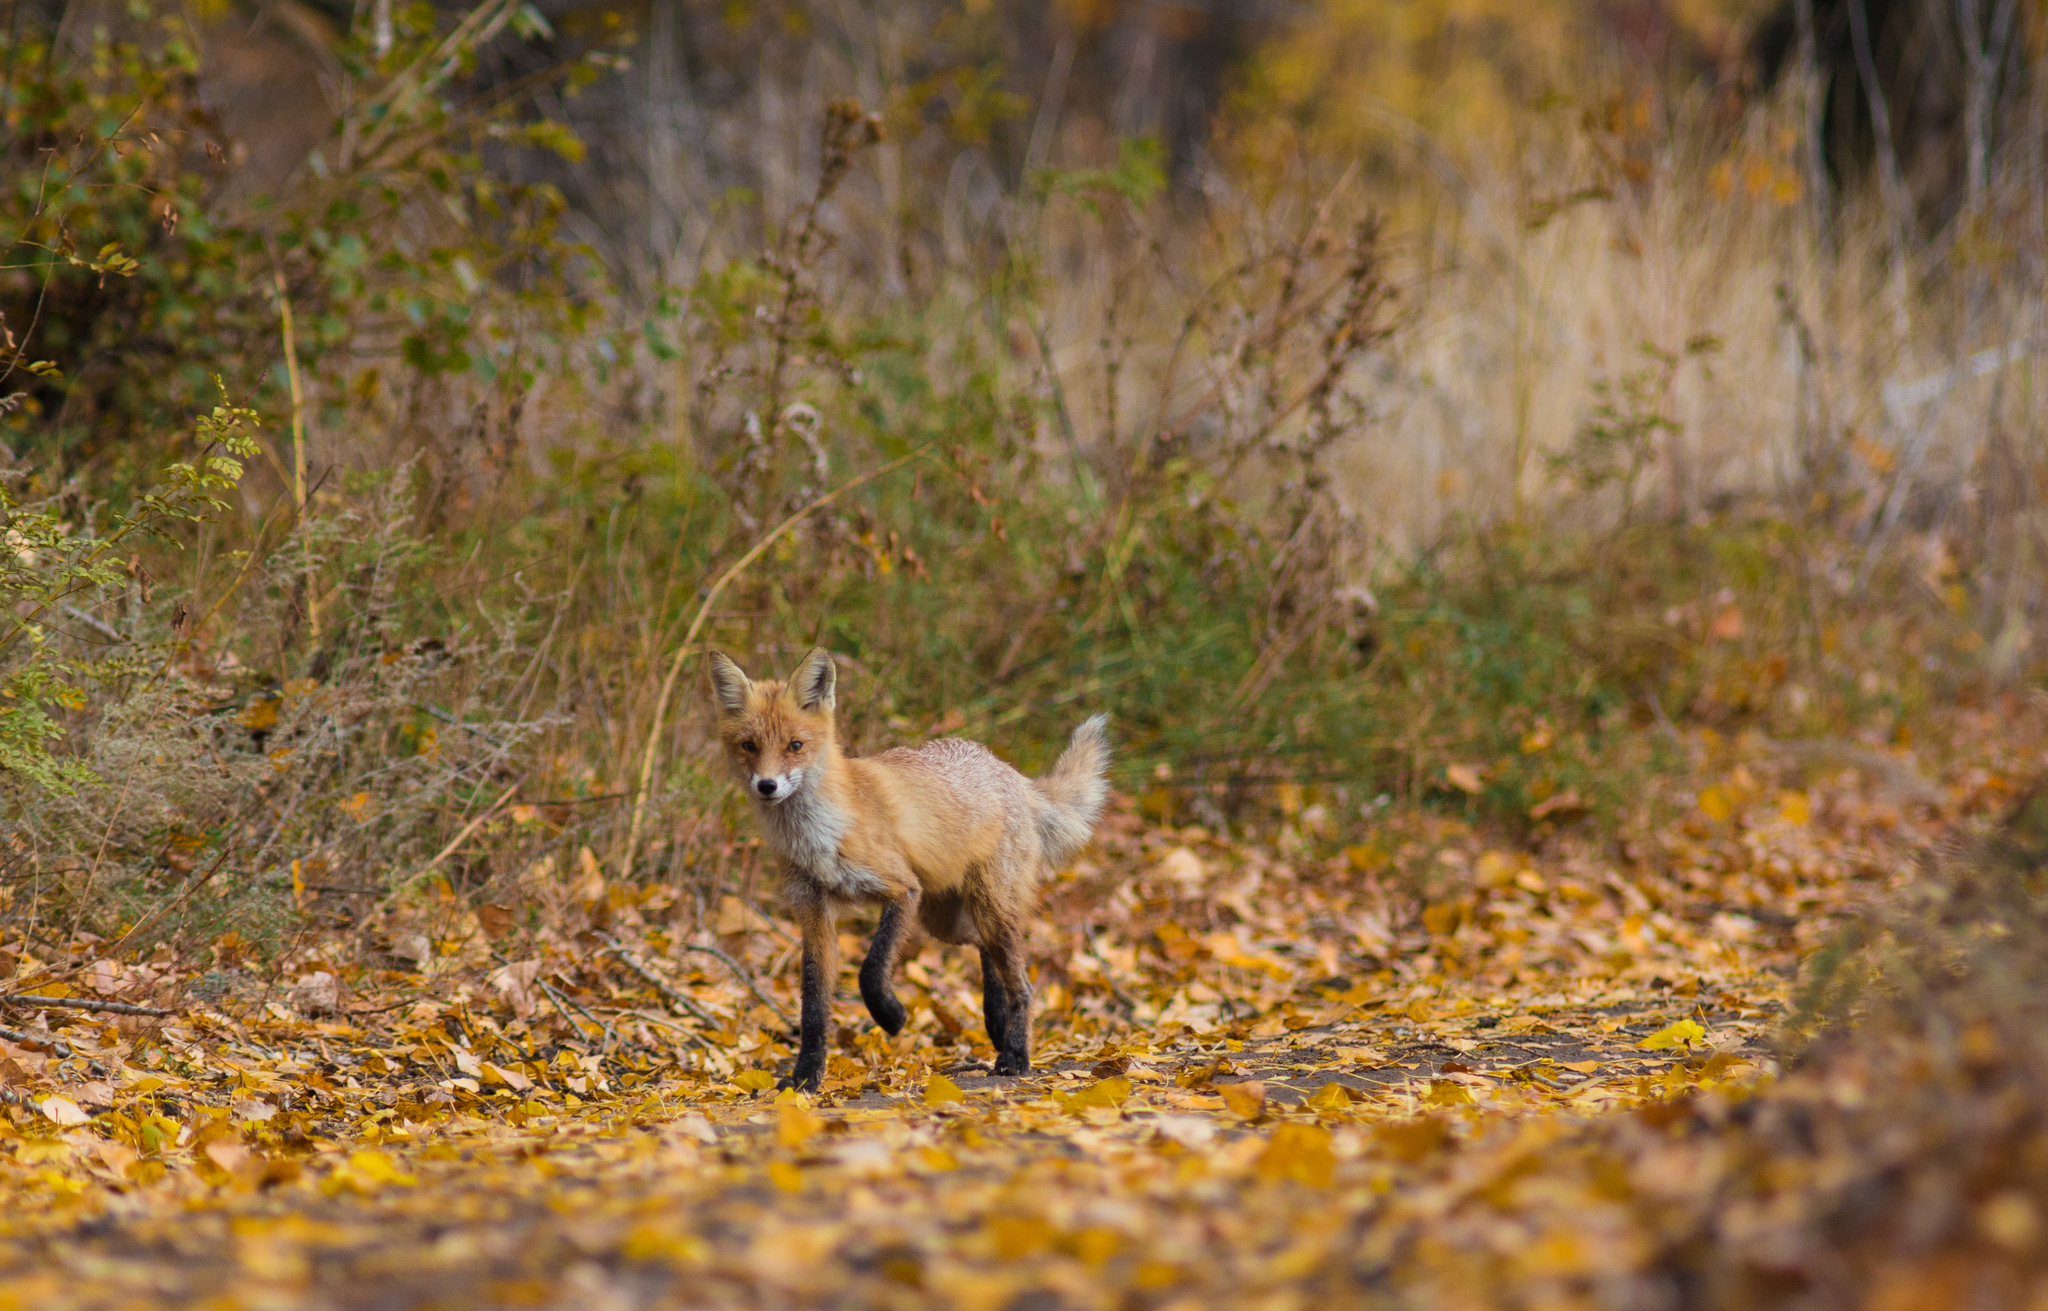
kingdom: Animalia
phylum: Chordata
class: Mammalia
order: Carnivora
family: Canidae
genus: Vulpes
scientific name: Vulpes vulpes
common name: Red fox
